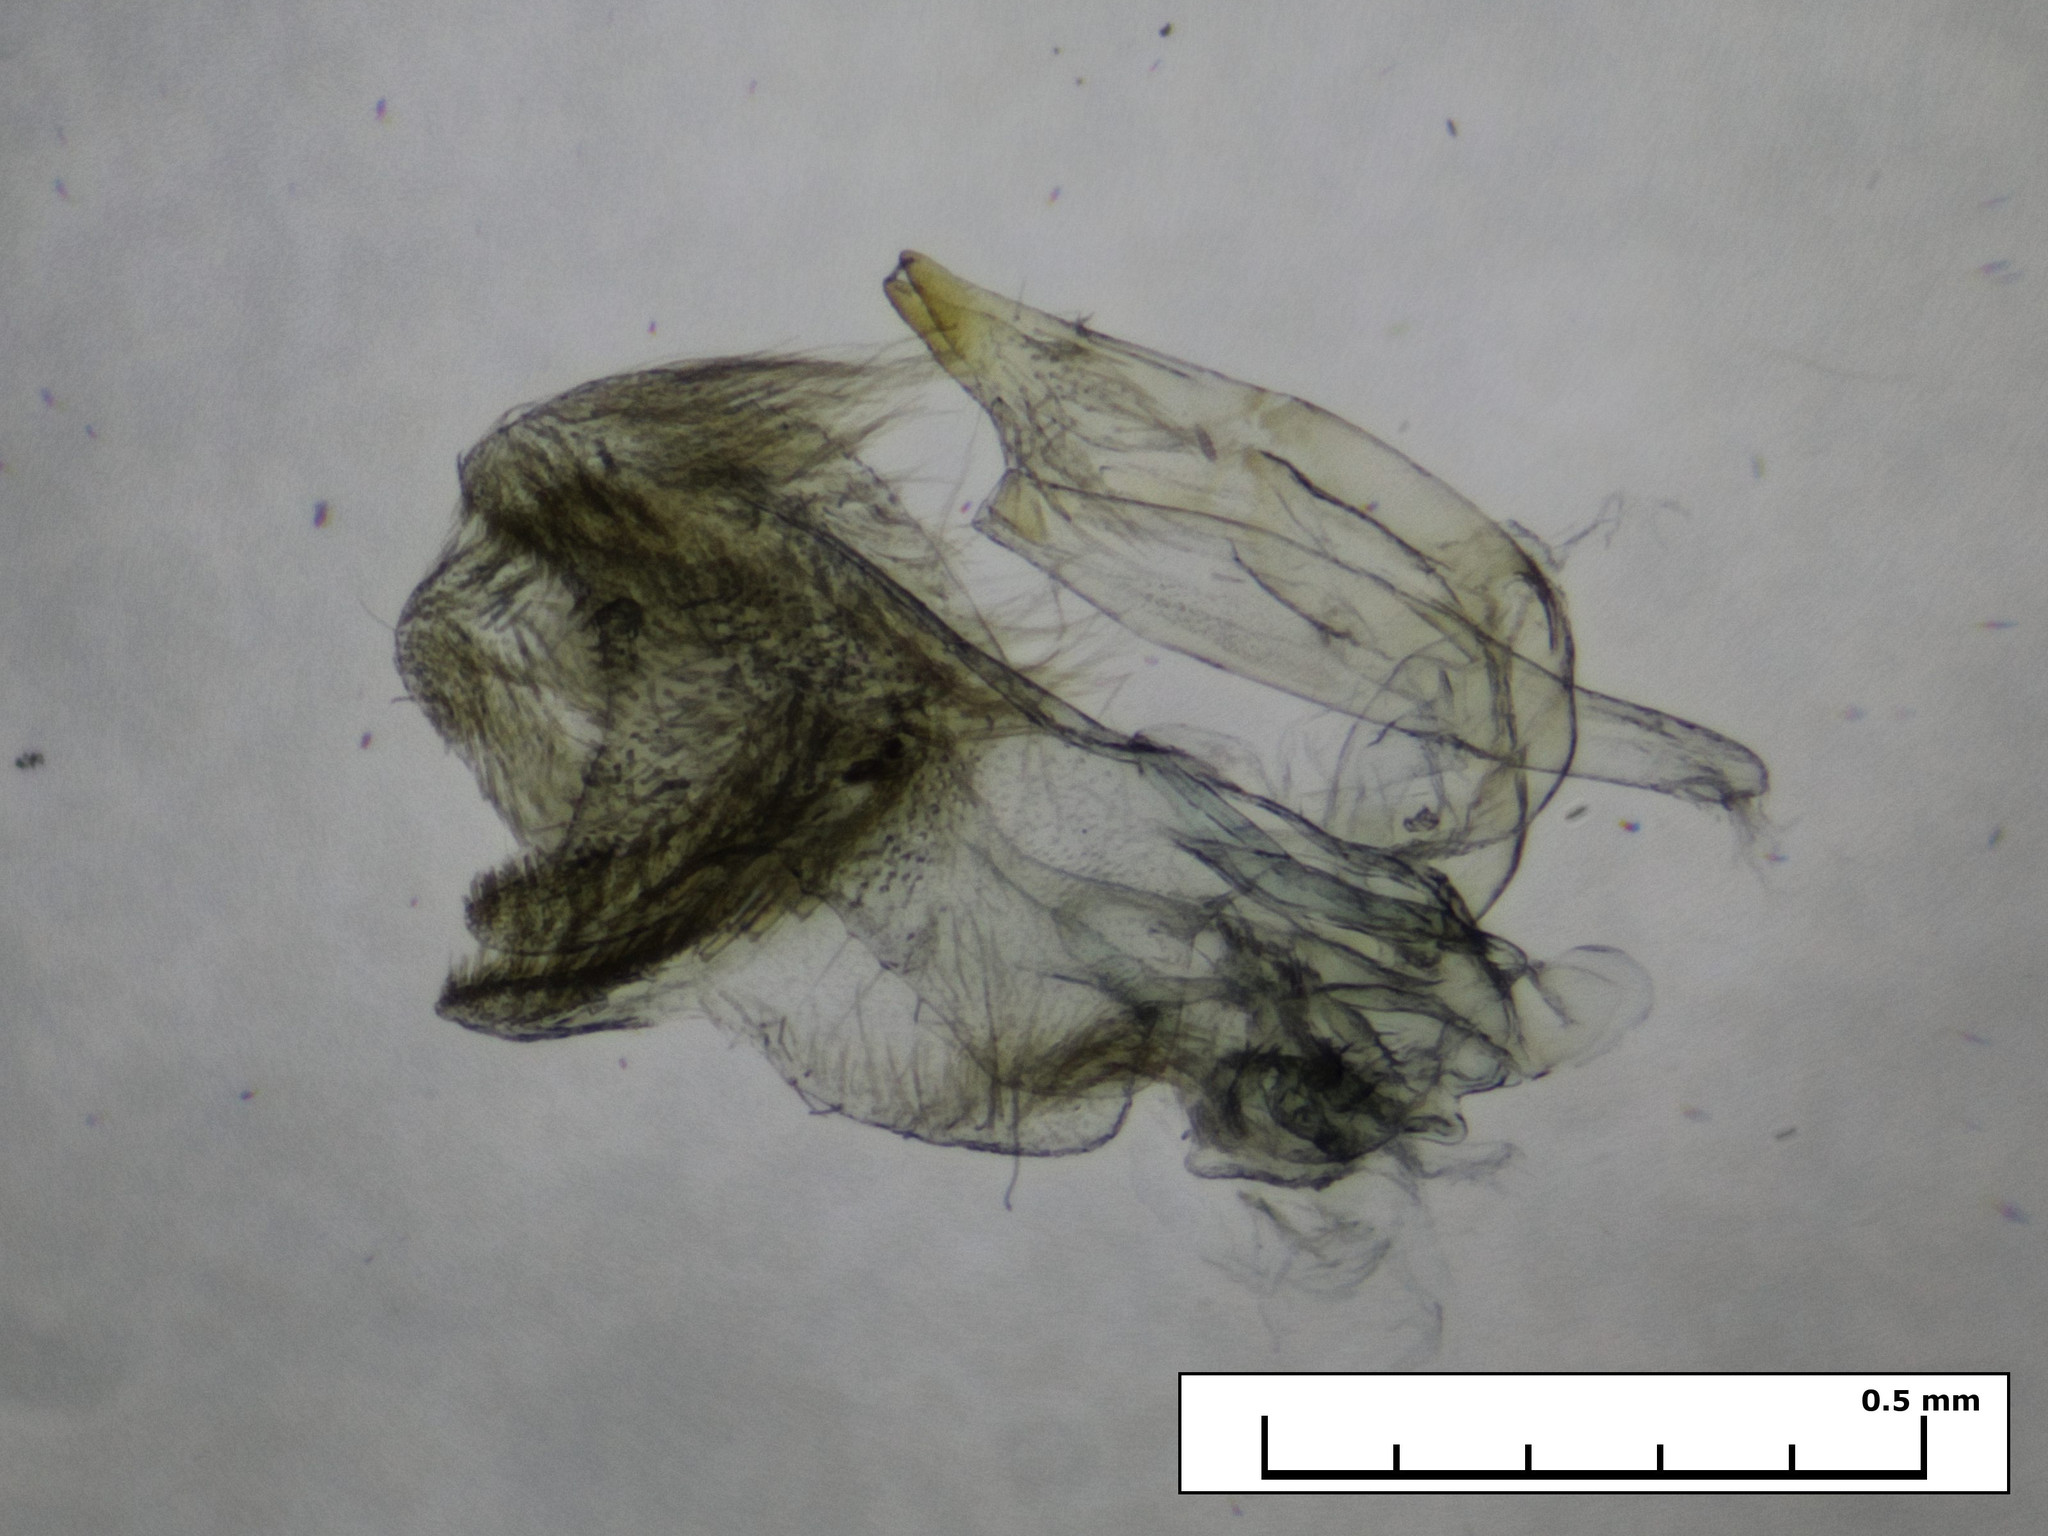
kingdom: Animalia
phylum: Arthropoda
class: Insecta
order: Lepidoptera
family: Pterophoridae
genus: Exelastis
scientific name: Exelastis pumilio
